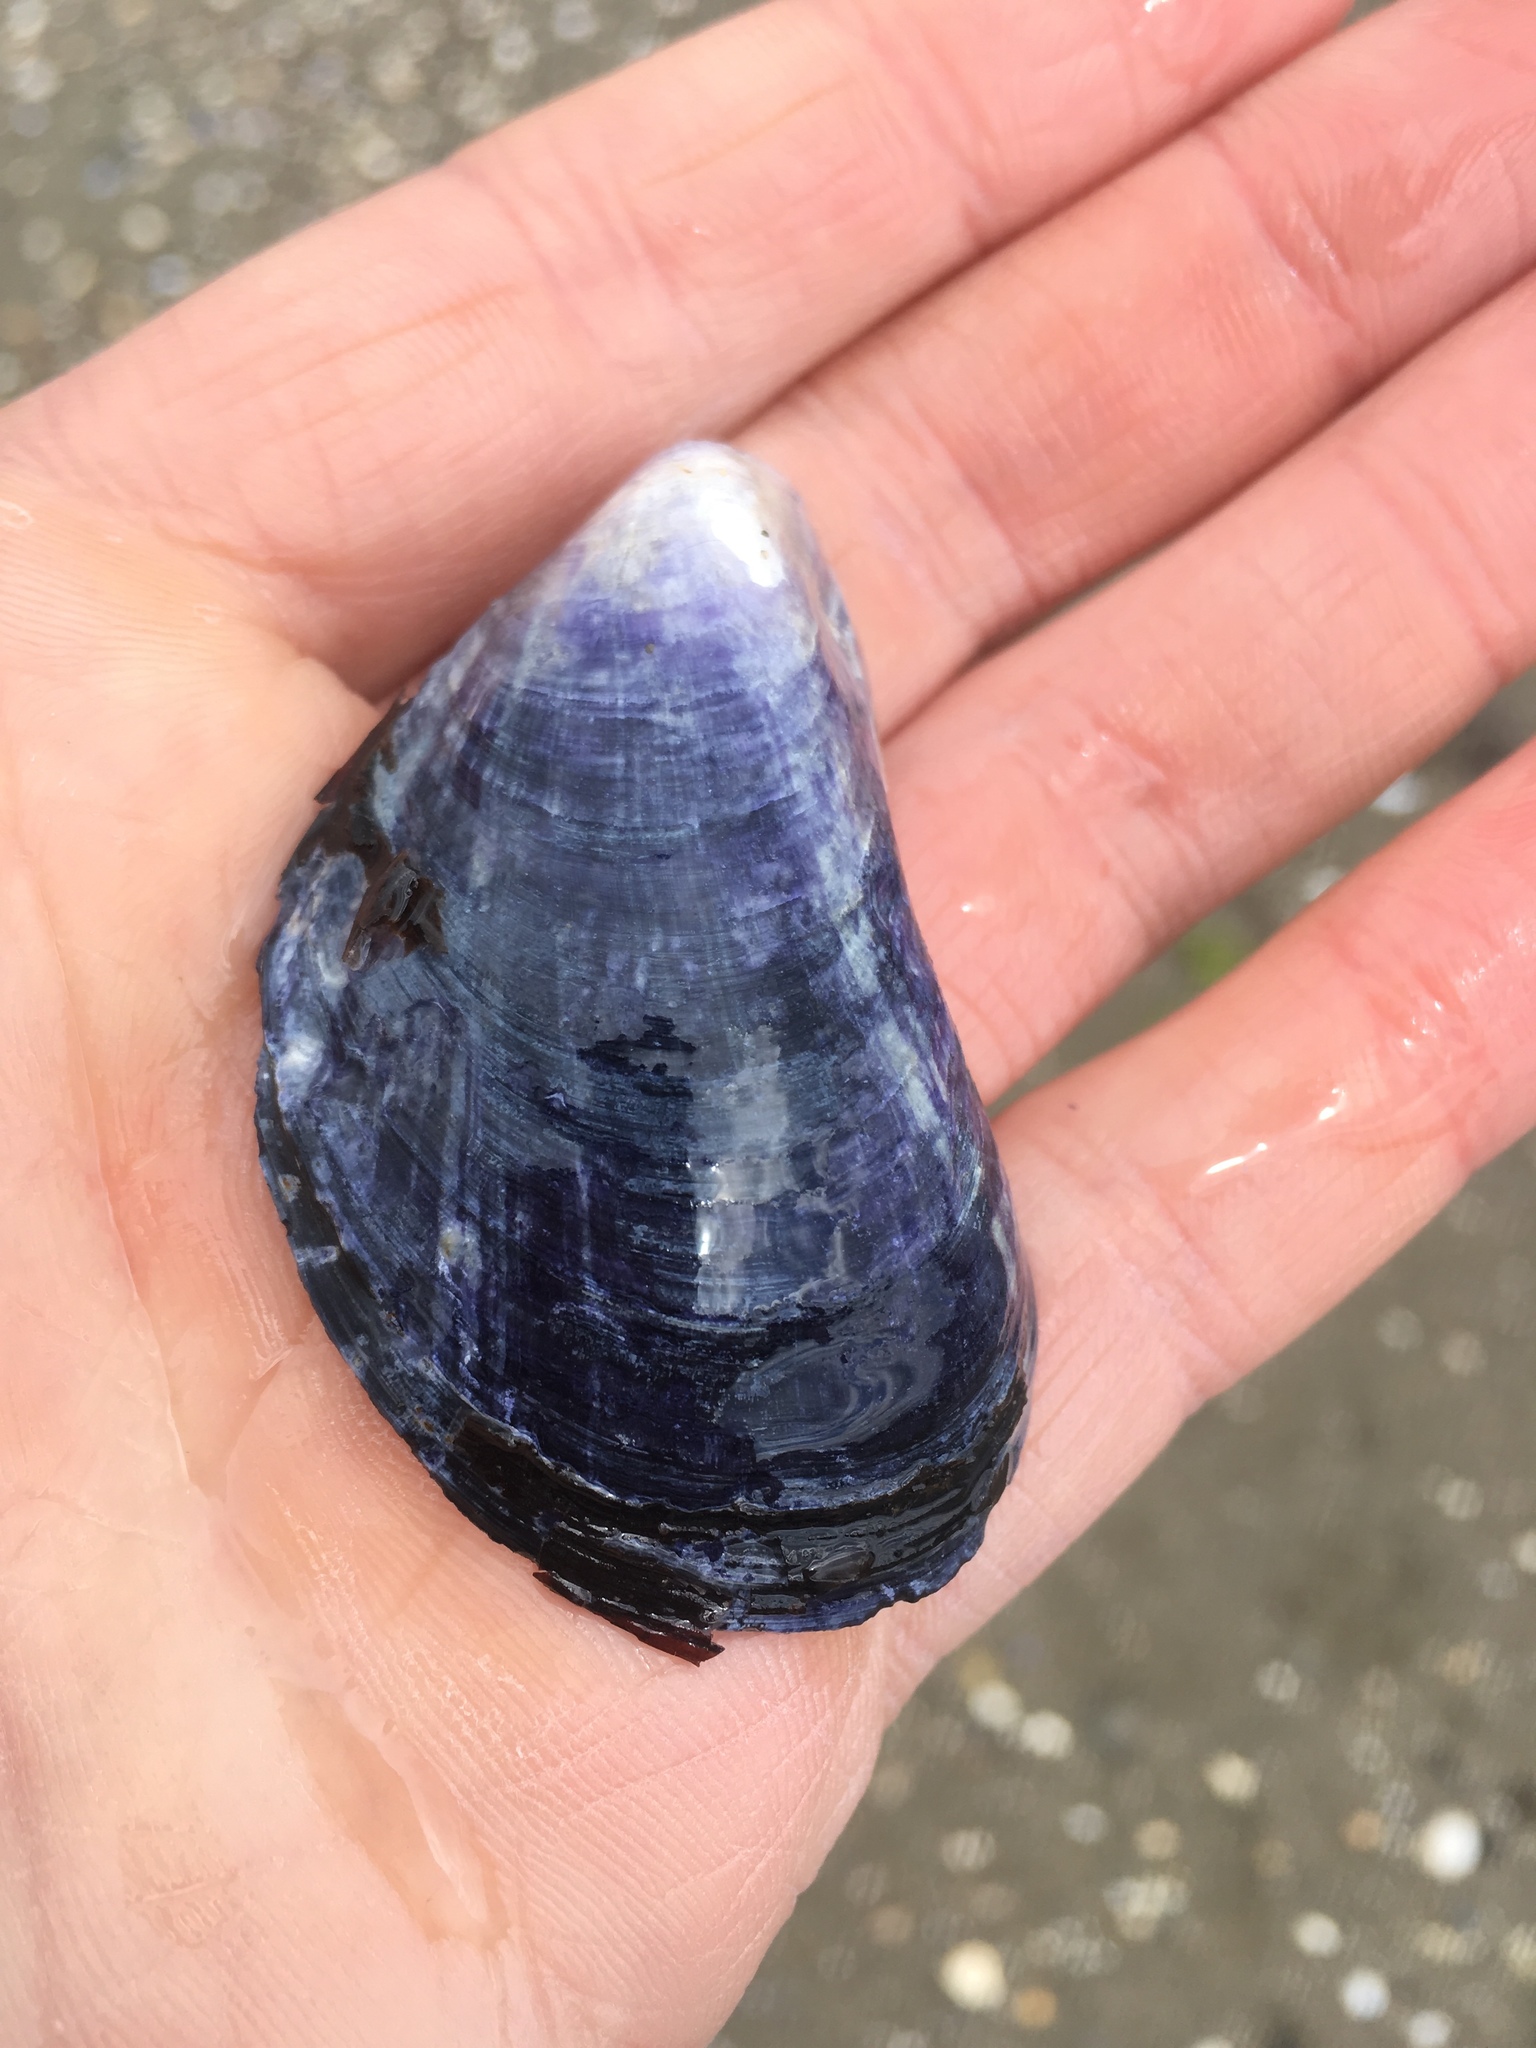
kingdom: Animalia
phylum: Mollusca
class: Bivalvia
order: Mytilida
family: Mytilidae
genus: Mytilus
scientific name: Mytilus edulis
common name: Blue mussel
